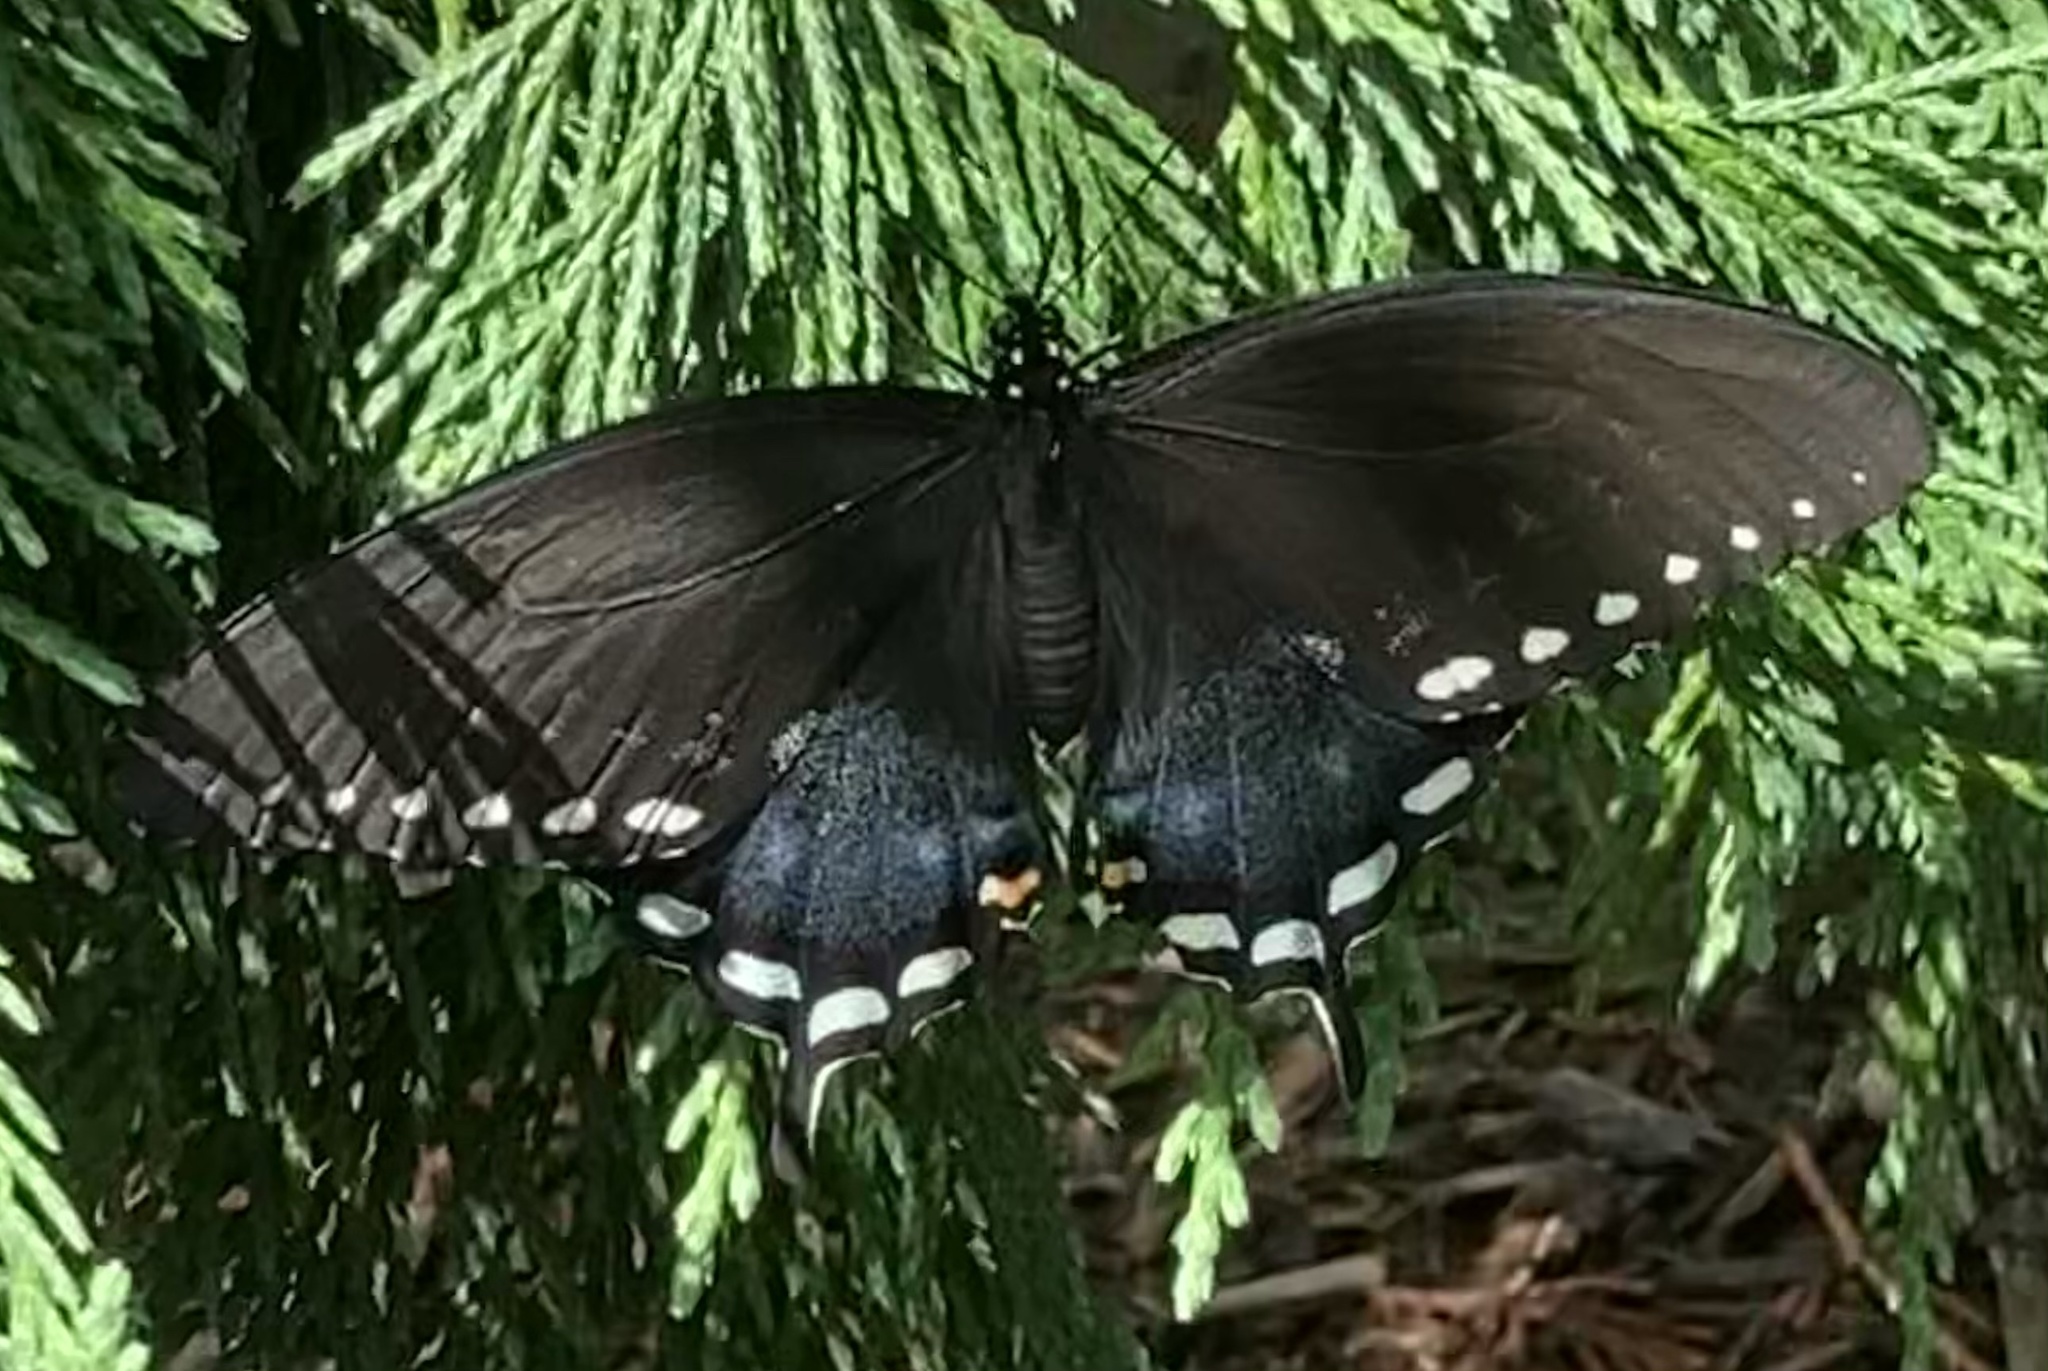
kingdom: Animalia
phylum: Arthropoda
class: Insecta
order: Lepidoptera
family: Papilionidae
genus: Papilio
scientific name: Papilio troilus
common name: Spicebush swallowtail
